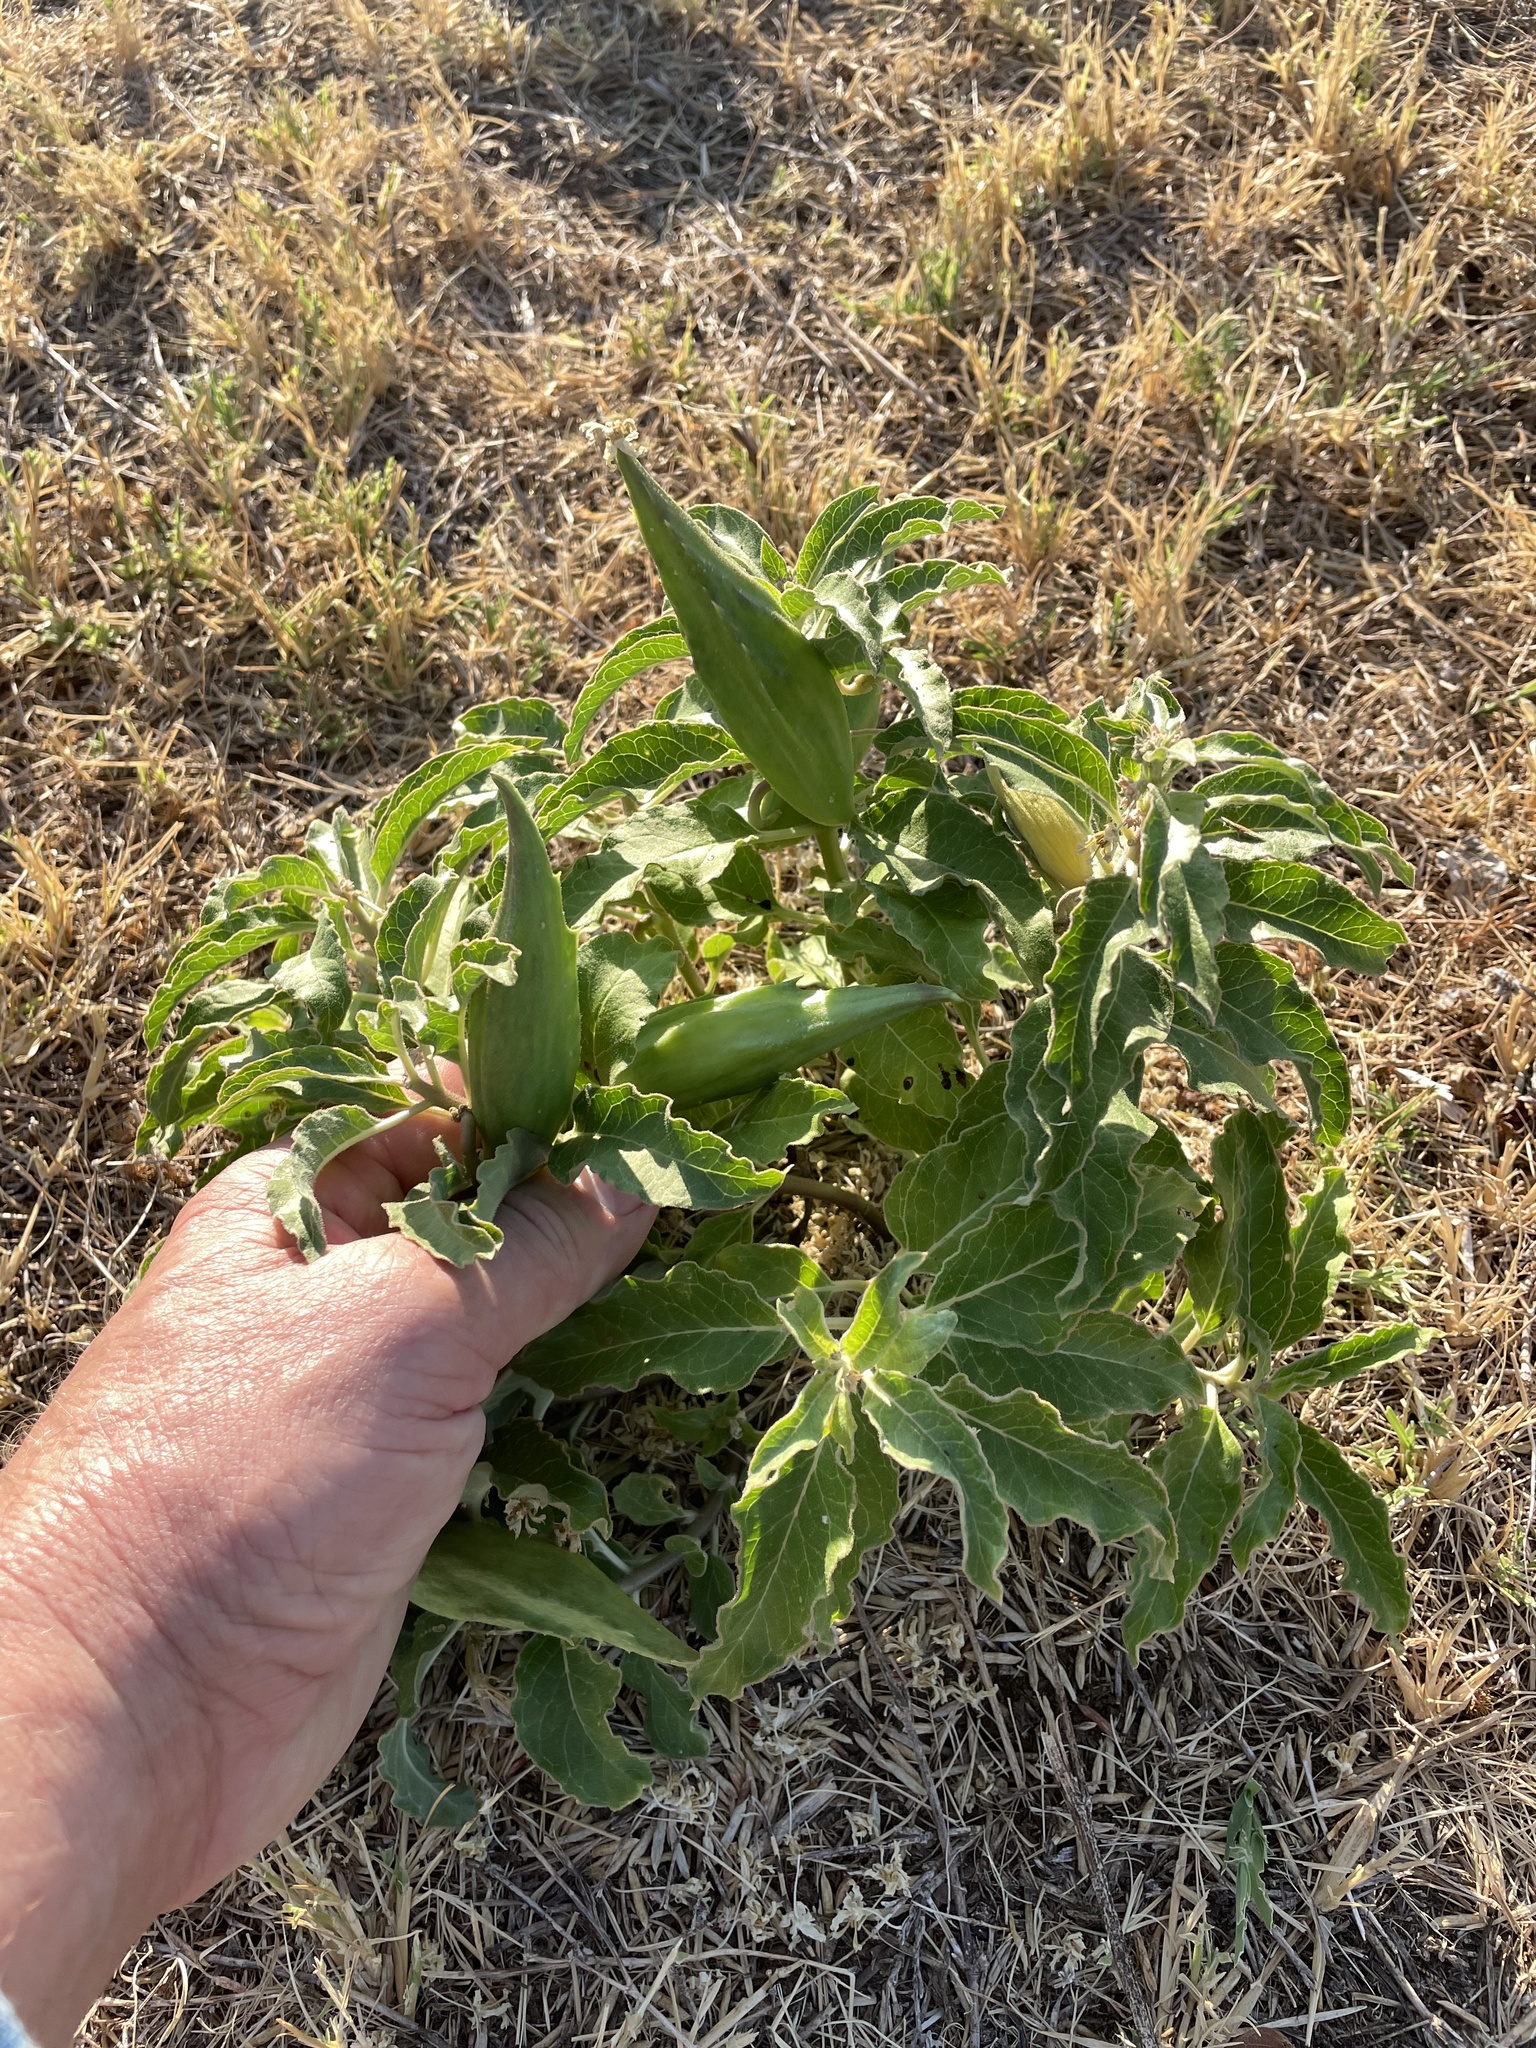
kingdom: Plantae
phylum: Tracheophyta
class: Magnoliopsida
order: Gentianales
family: Apocynaceae
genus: Asclepias
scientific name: Asclepias oenotheroides
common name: Zizotes milkweed
